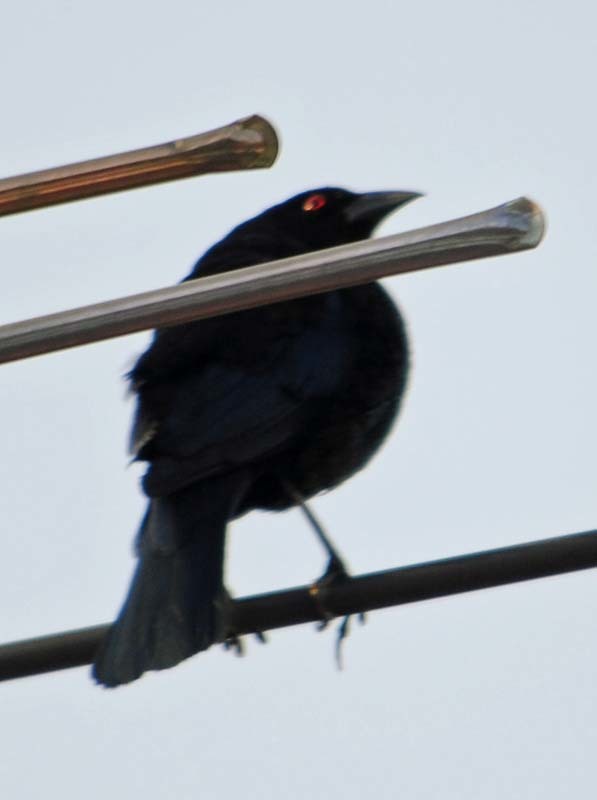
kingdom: Animalia
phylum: Chordata
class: Aves
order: Passeriformes
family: Icteridae
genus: Molothrus
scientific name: Molothrus aeneus
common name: Bronzed cowbird
